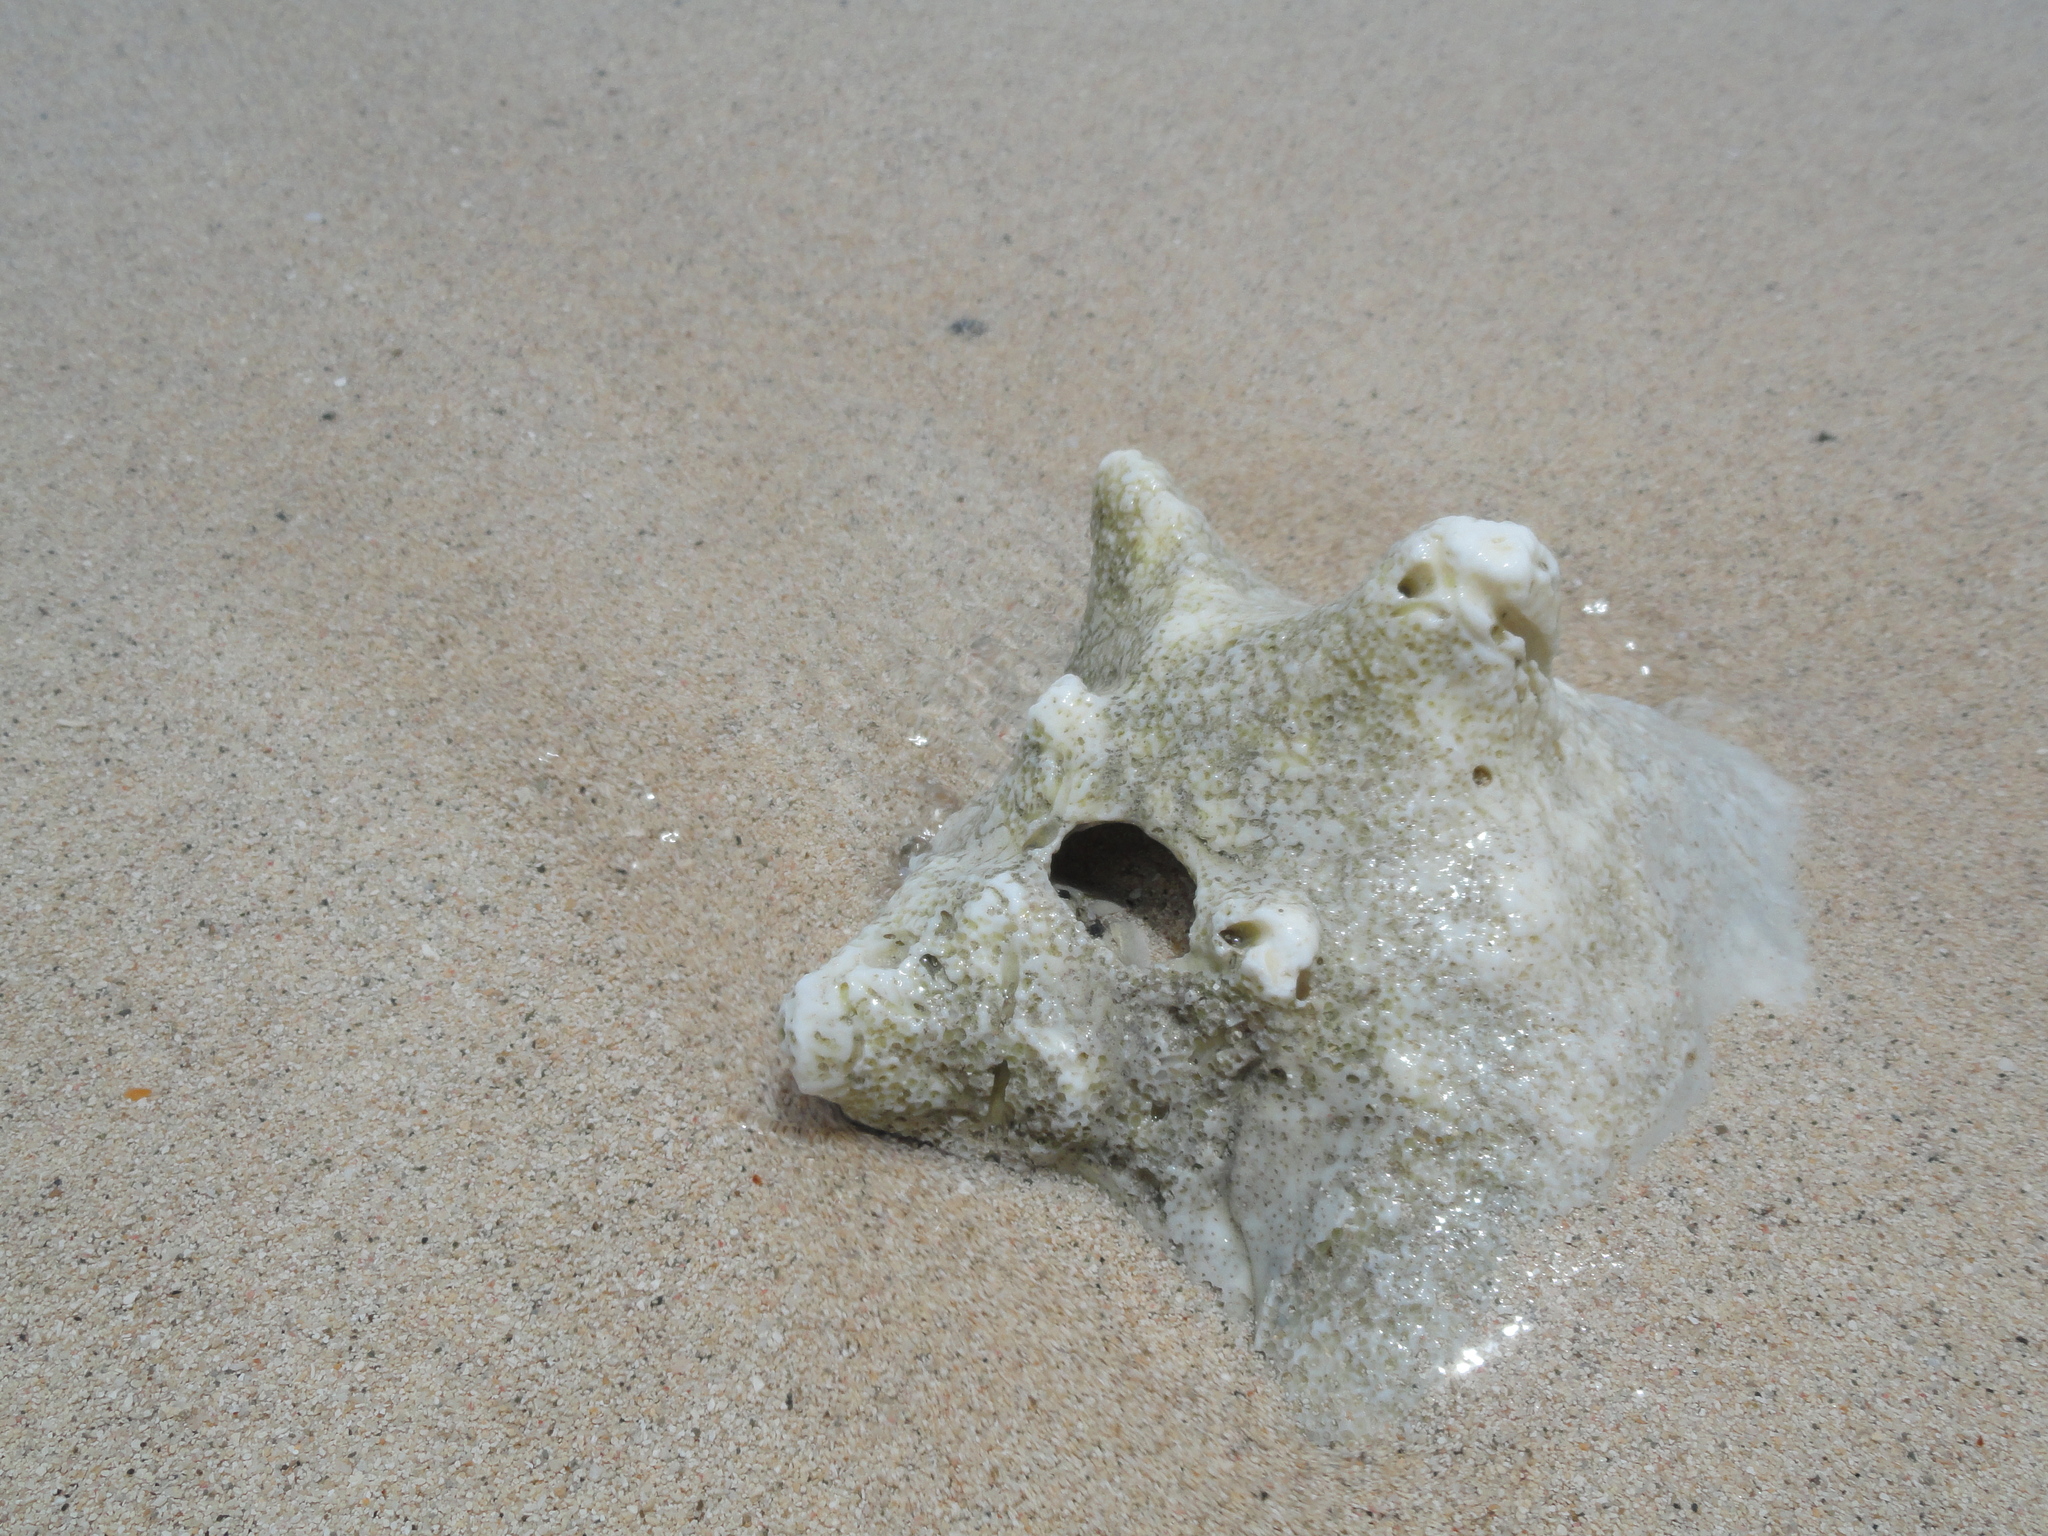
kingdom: Animalia
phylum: Mollusca
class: Gastropoda
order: Littorinimorpha
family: Strombidae
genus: Aliger
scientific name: Aliger gigas
